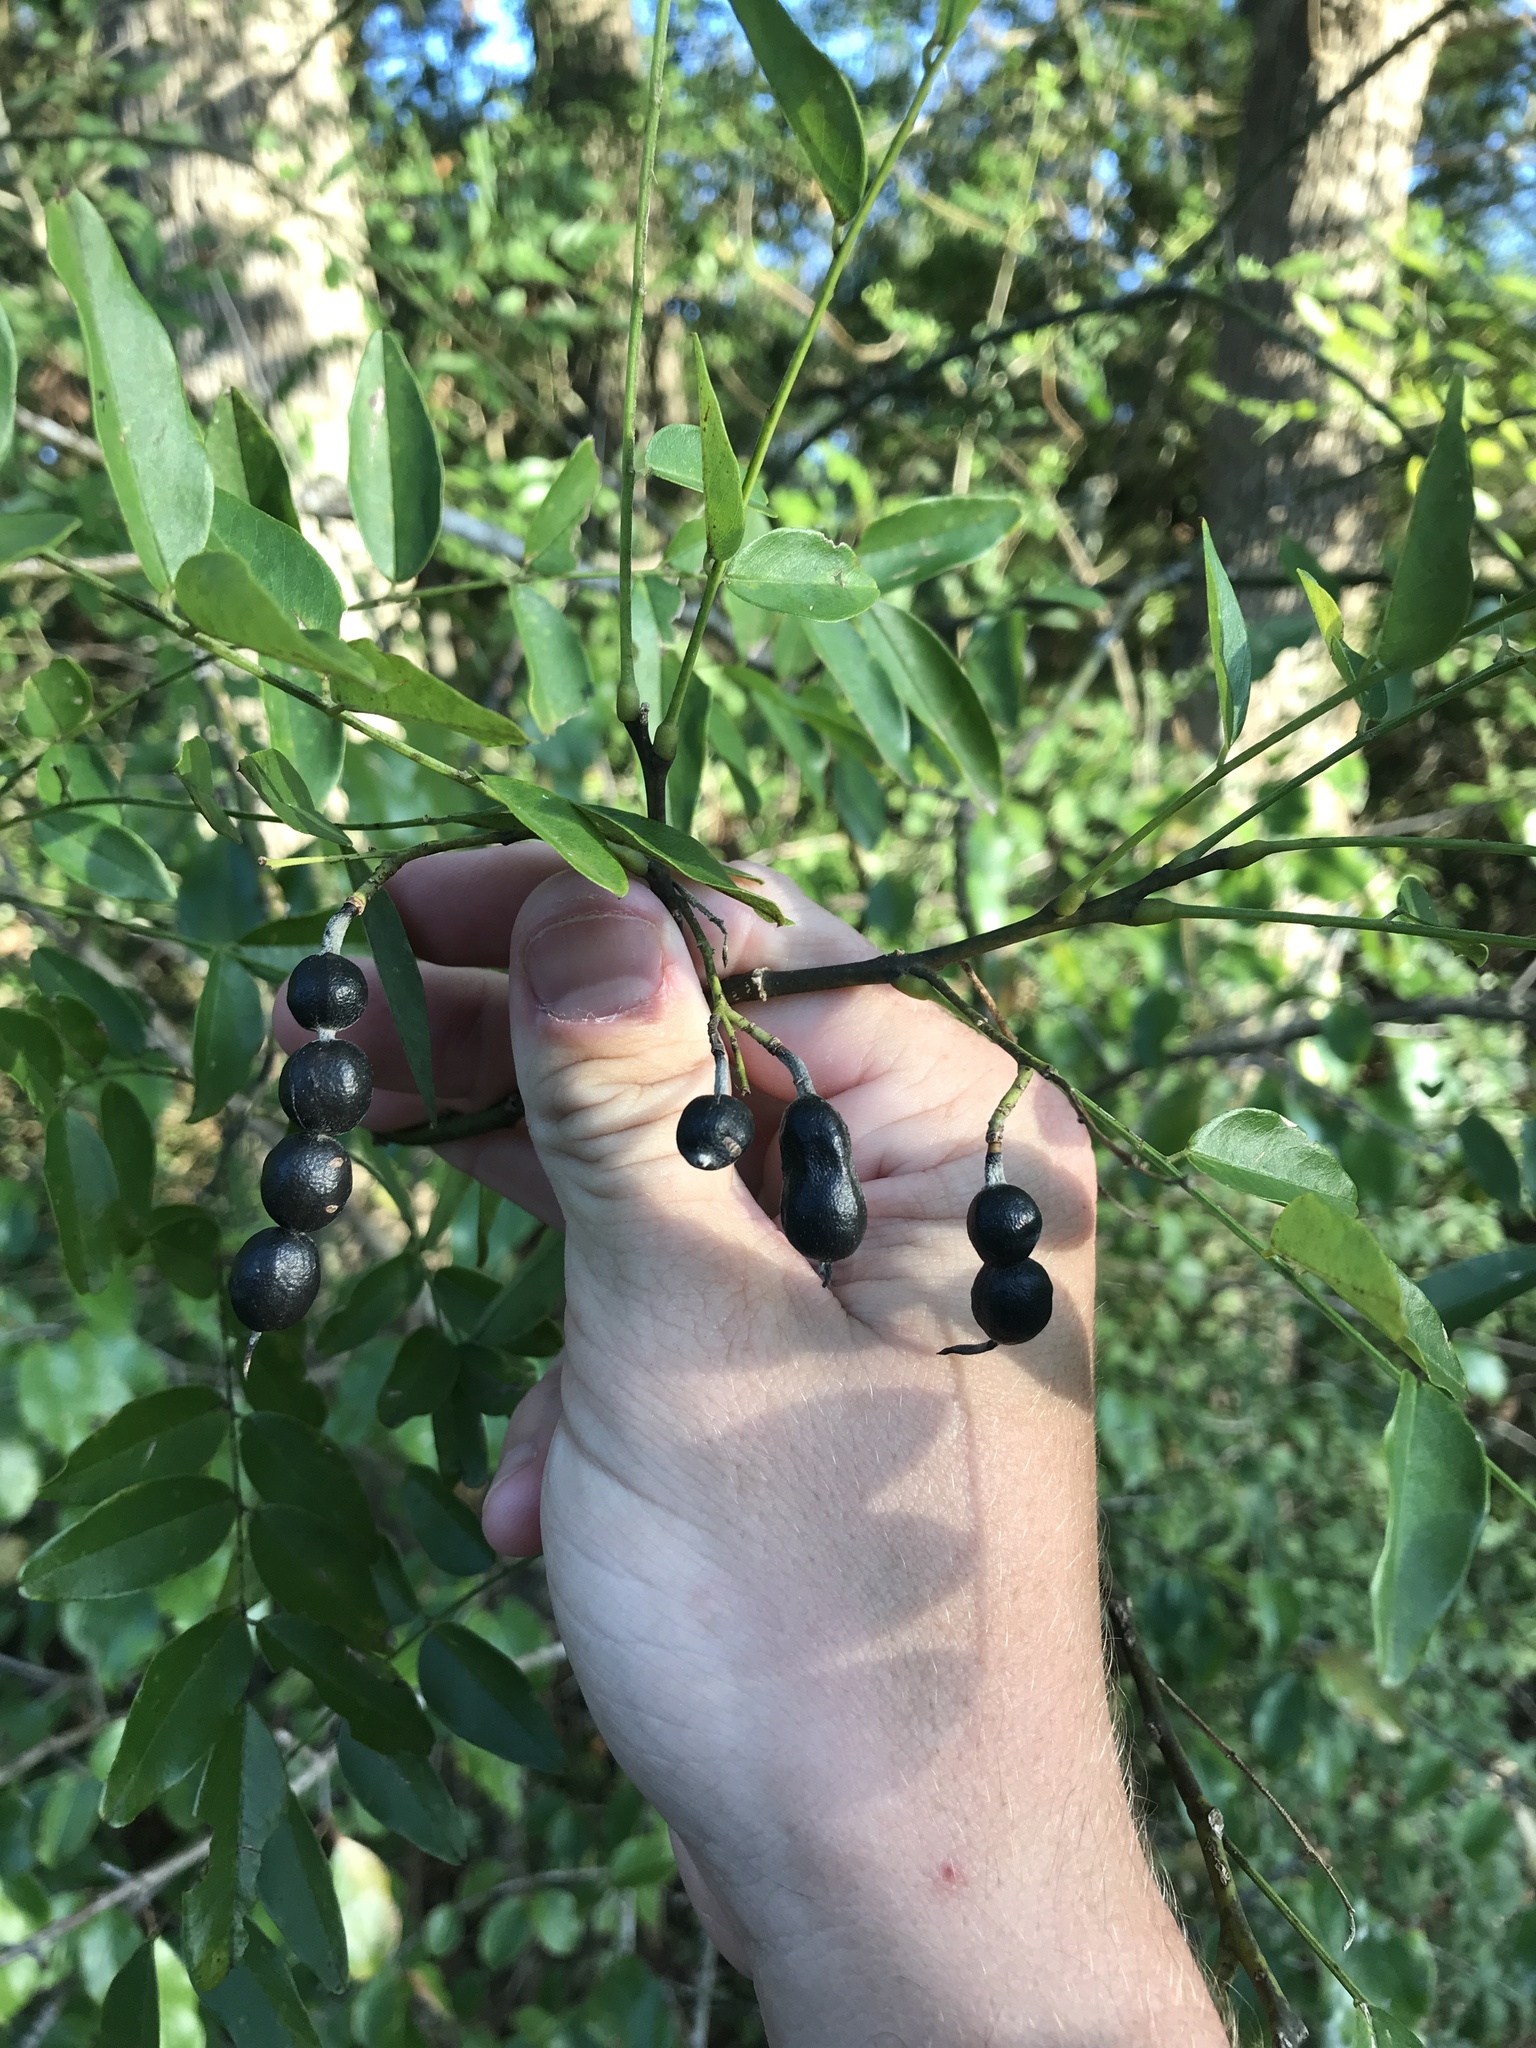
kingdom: Plantae
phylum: Tracheophyta
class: Magnoliopsida
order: Fabales
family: Fabaceae
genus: Styphnolobium
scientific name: Styphnolobium affine
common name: Texas sophora
